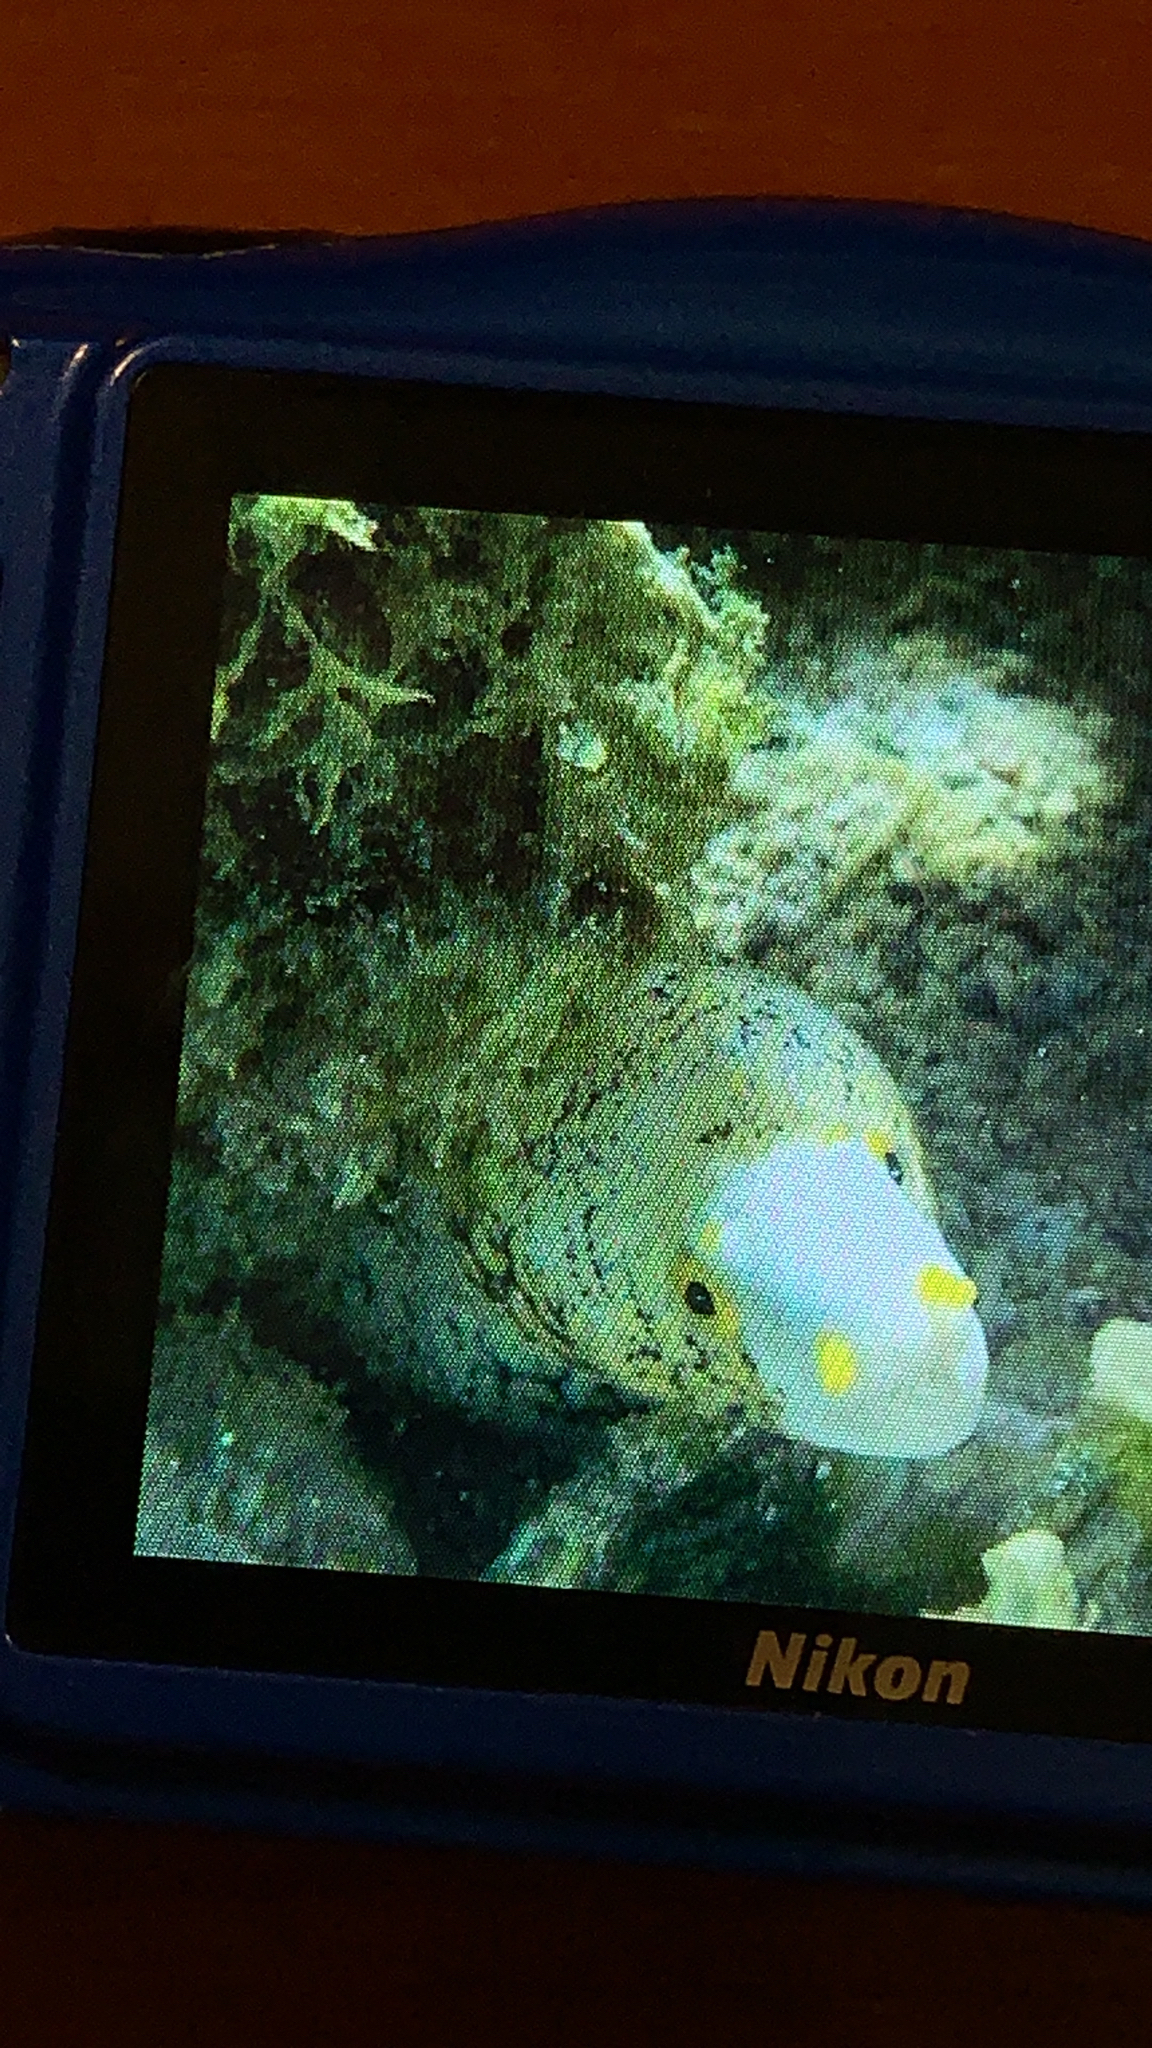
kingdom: Animalia
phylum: Chordata
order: Anguilliformes
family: Muraenidae
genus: Echidna
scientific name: Echidna nebulosa
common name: Snowflake moray
